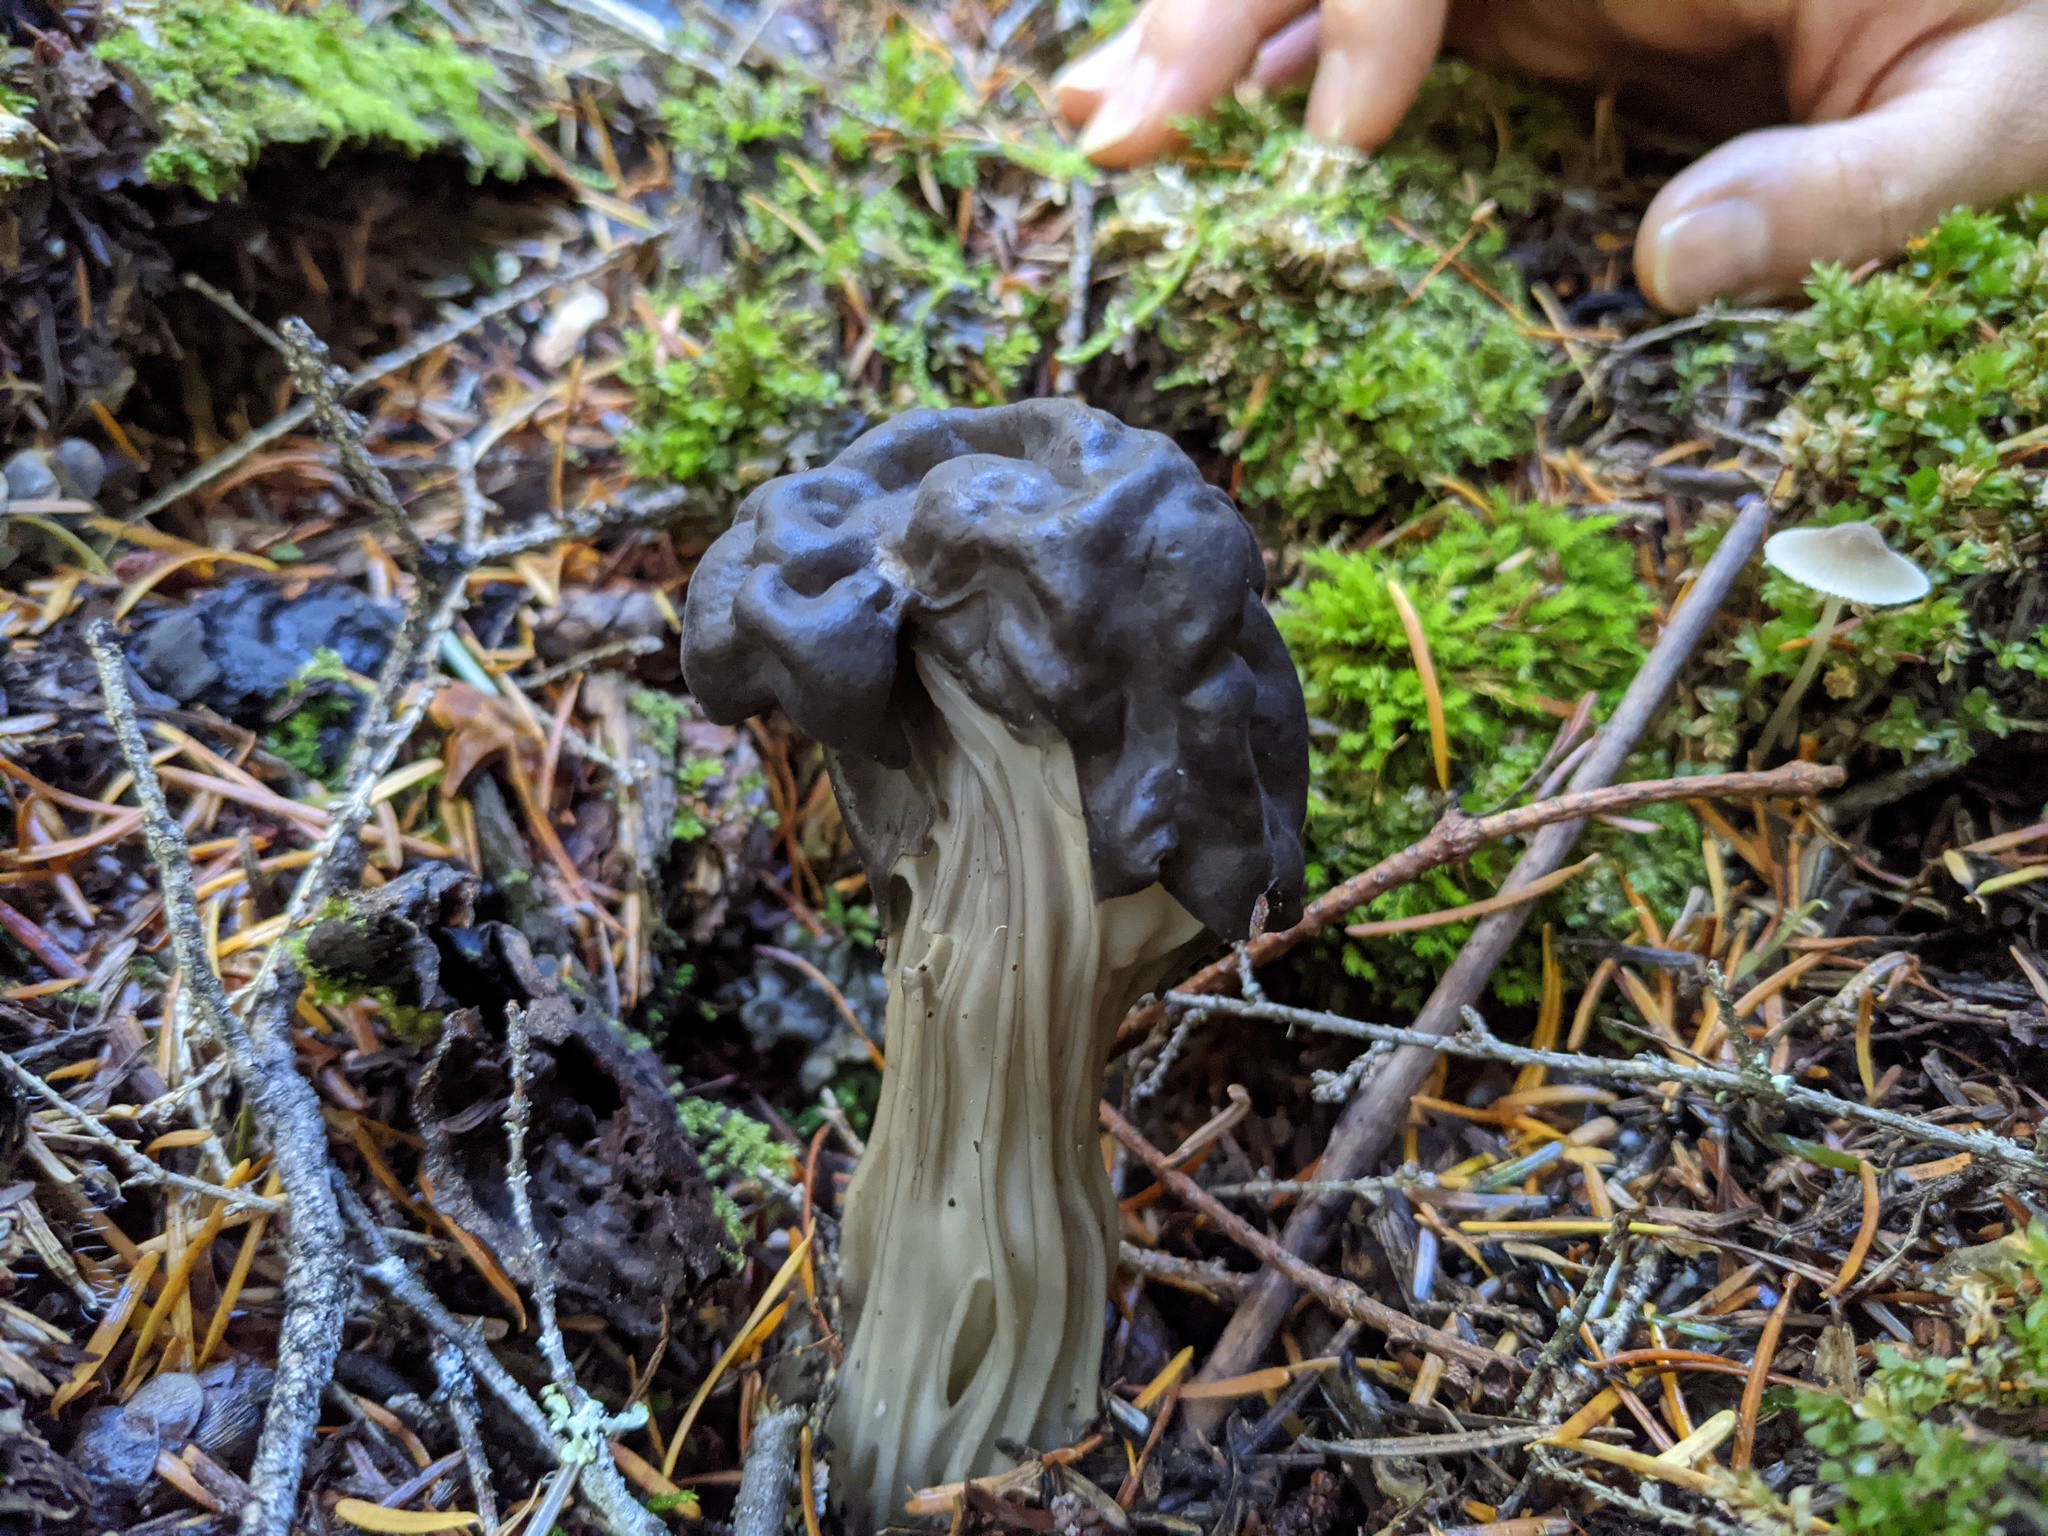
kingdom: Fungi
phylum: Ascomycota
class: Pezizomycetes
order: Pezizales
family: Helvellaceae
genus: Helvella
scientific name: Helvella vespertina
